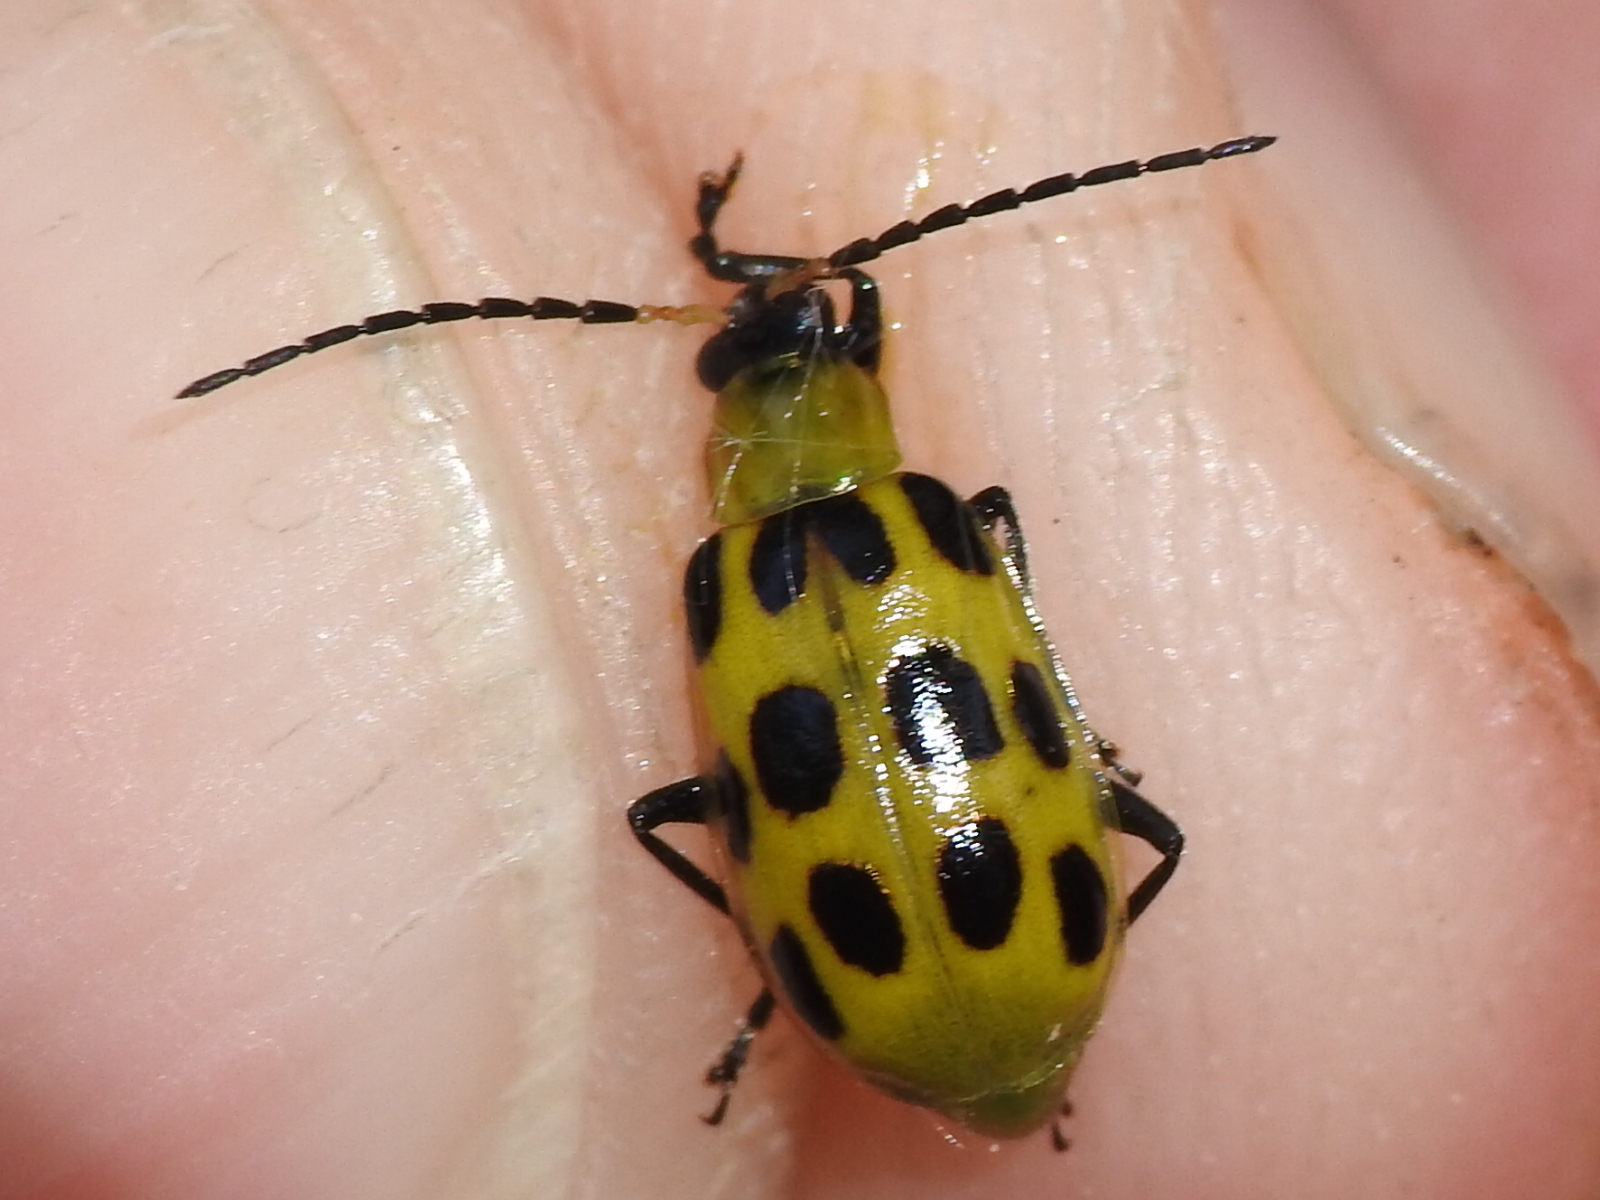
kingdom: Animalia
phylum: Arthropoda
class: Insecta
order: Coleoptera
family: Chrysomelidae
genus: Diabrotica
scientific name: Diabrotica undecimpunctata
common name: Spotted cucumber beetle
